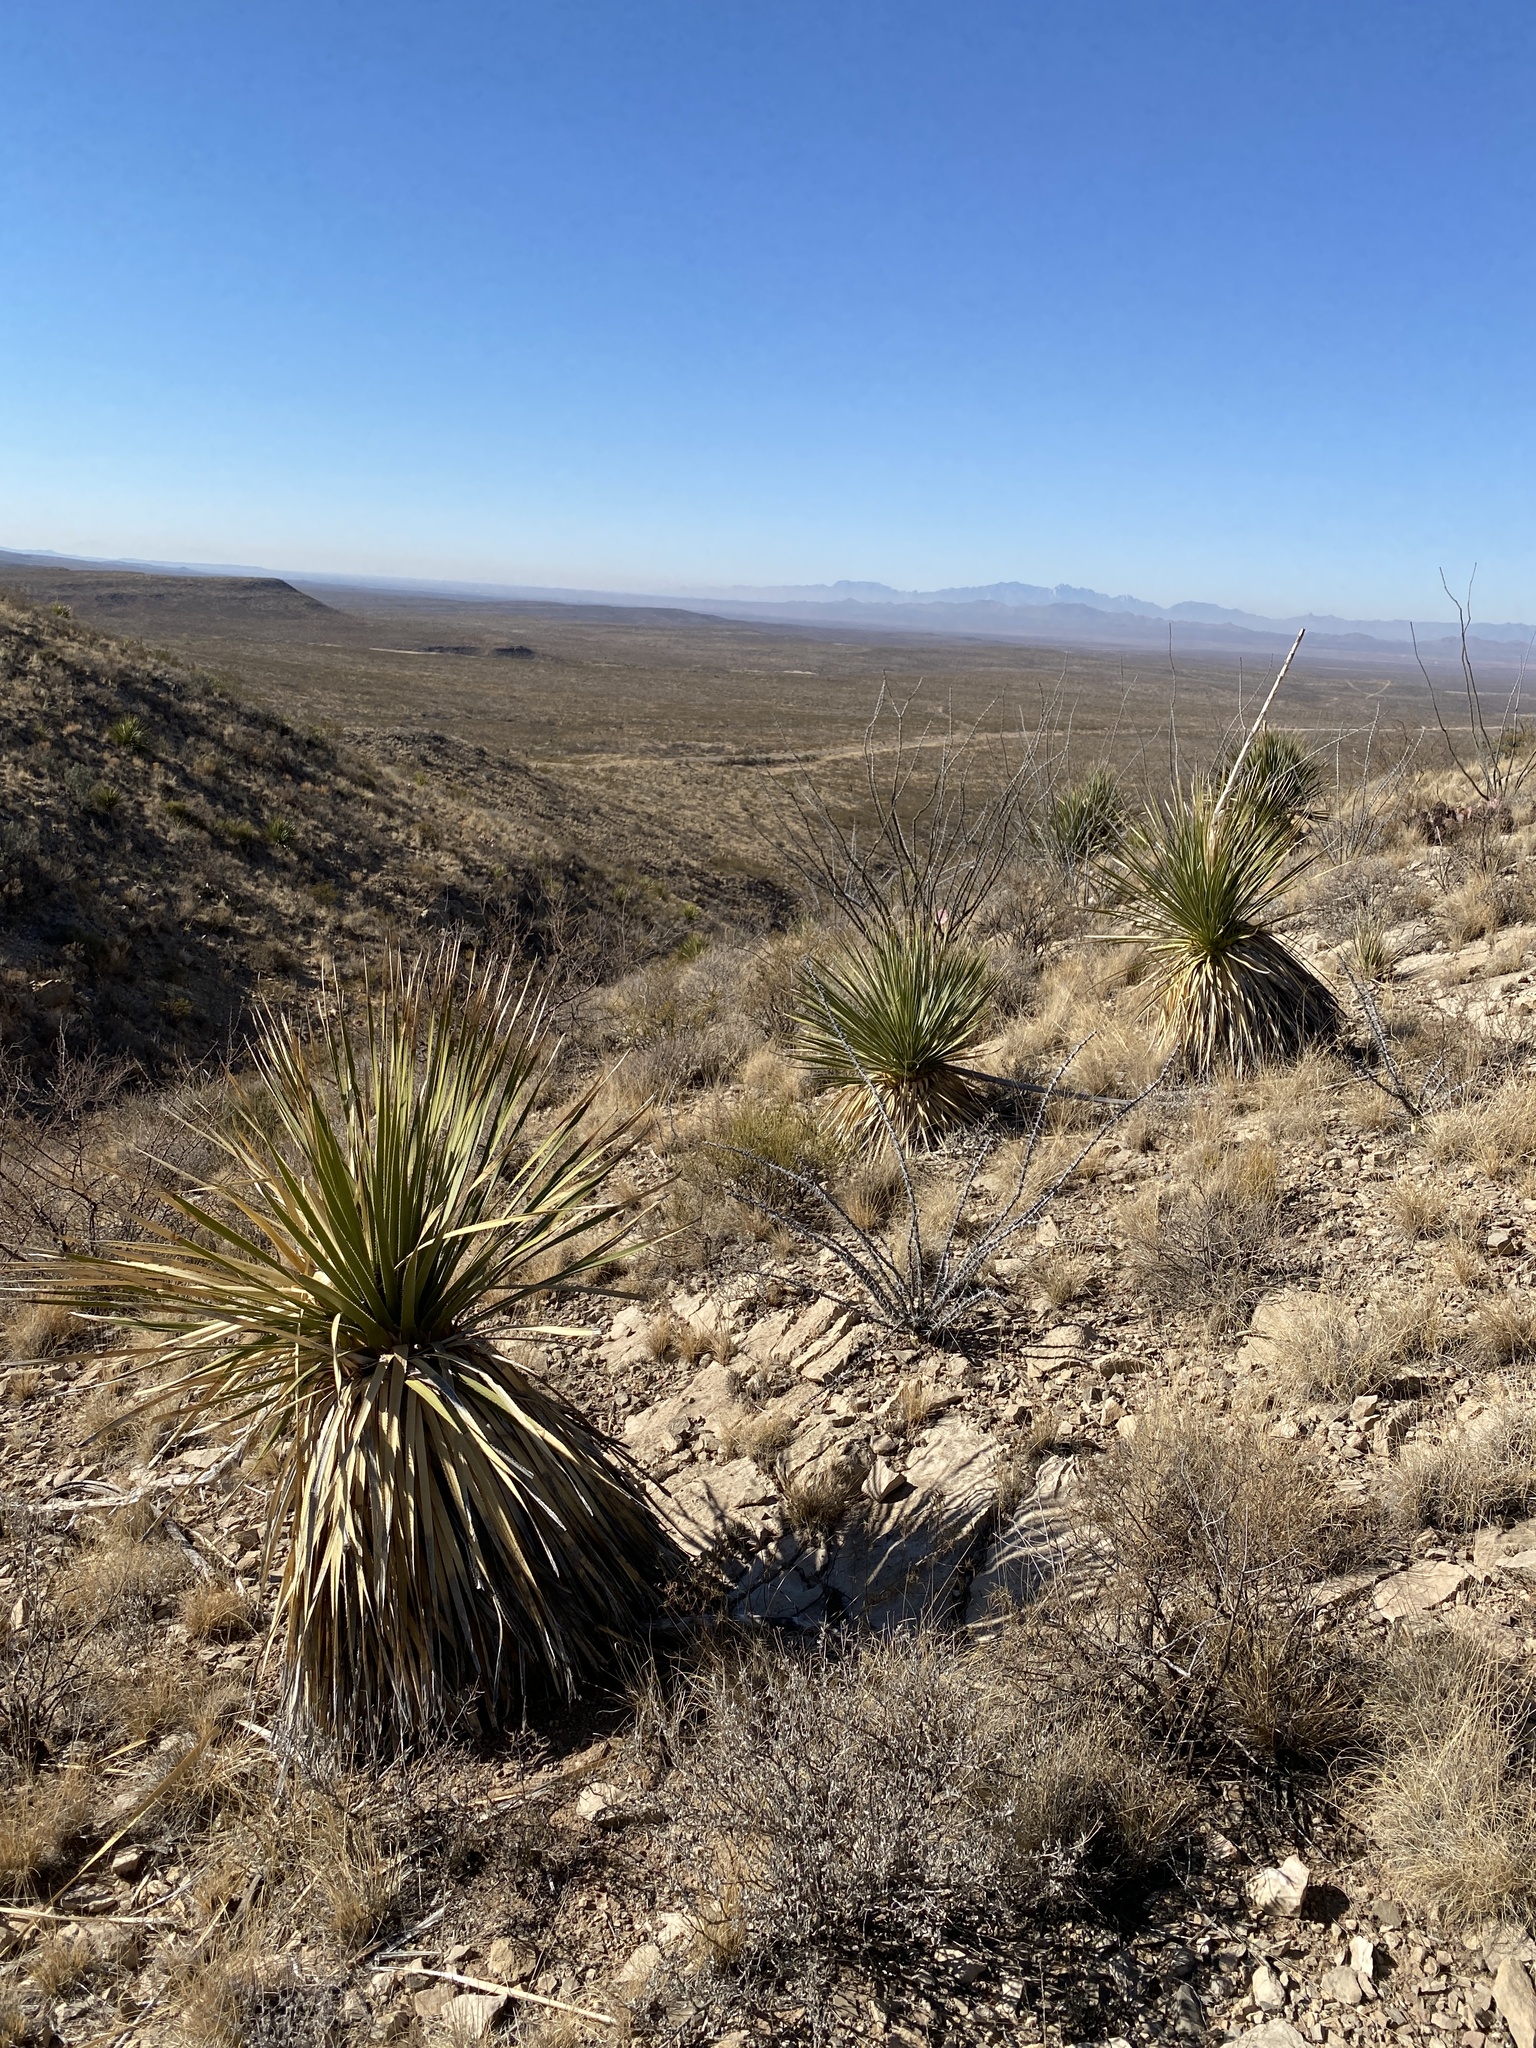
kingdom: Plantae
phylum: Tracheophyta
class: Liliopsida
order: Asparagales
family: Asparagaceae
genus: Dasylirion
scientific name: Dasylirion wheeleri
